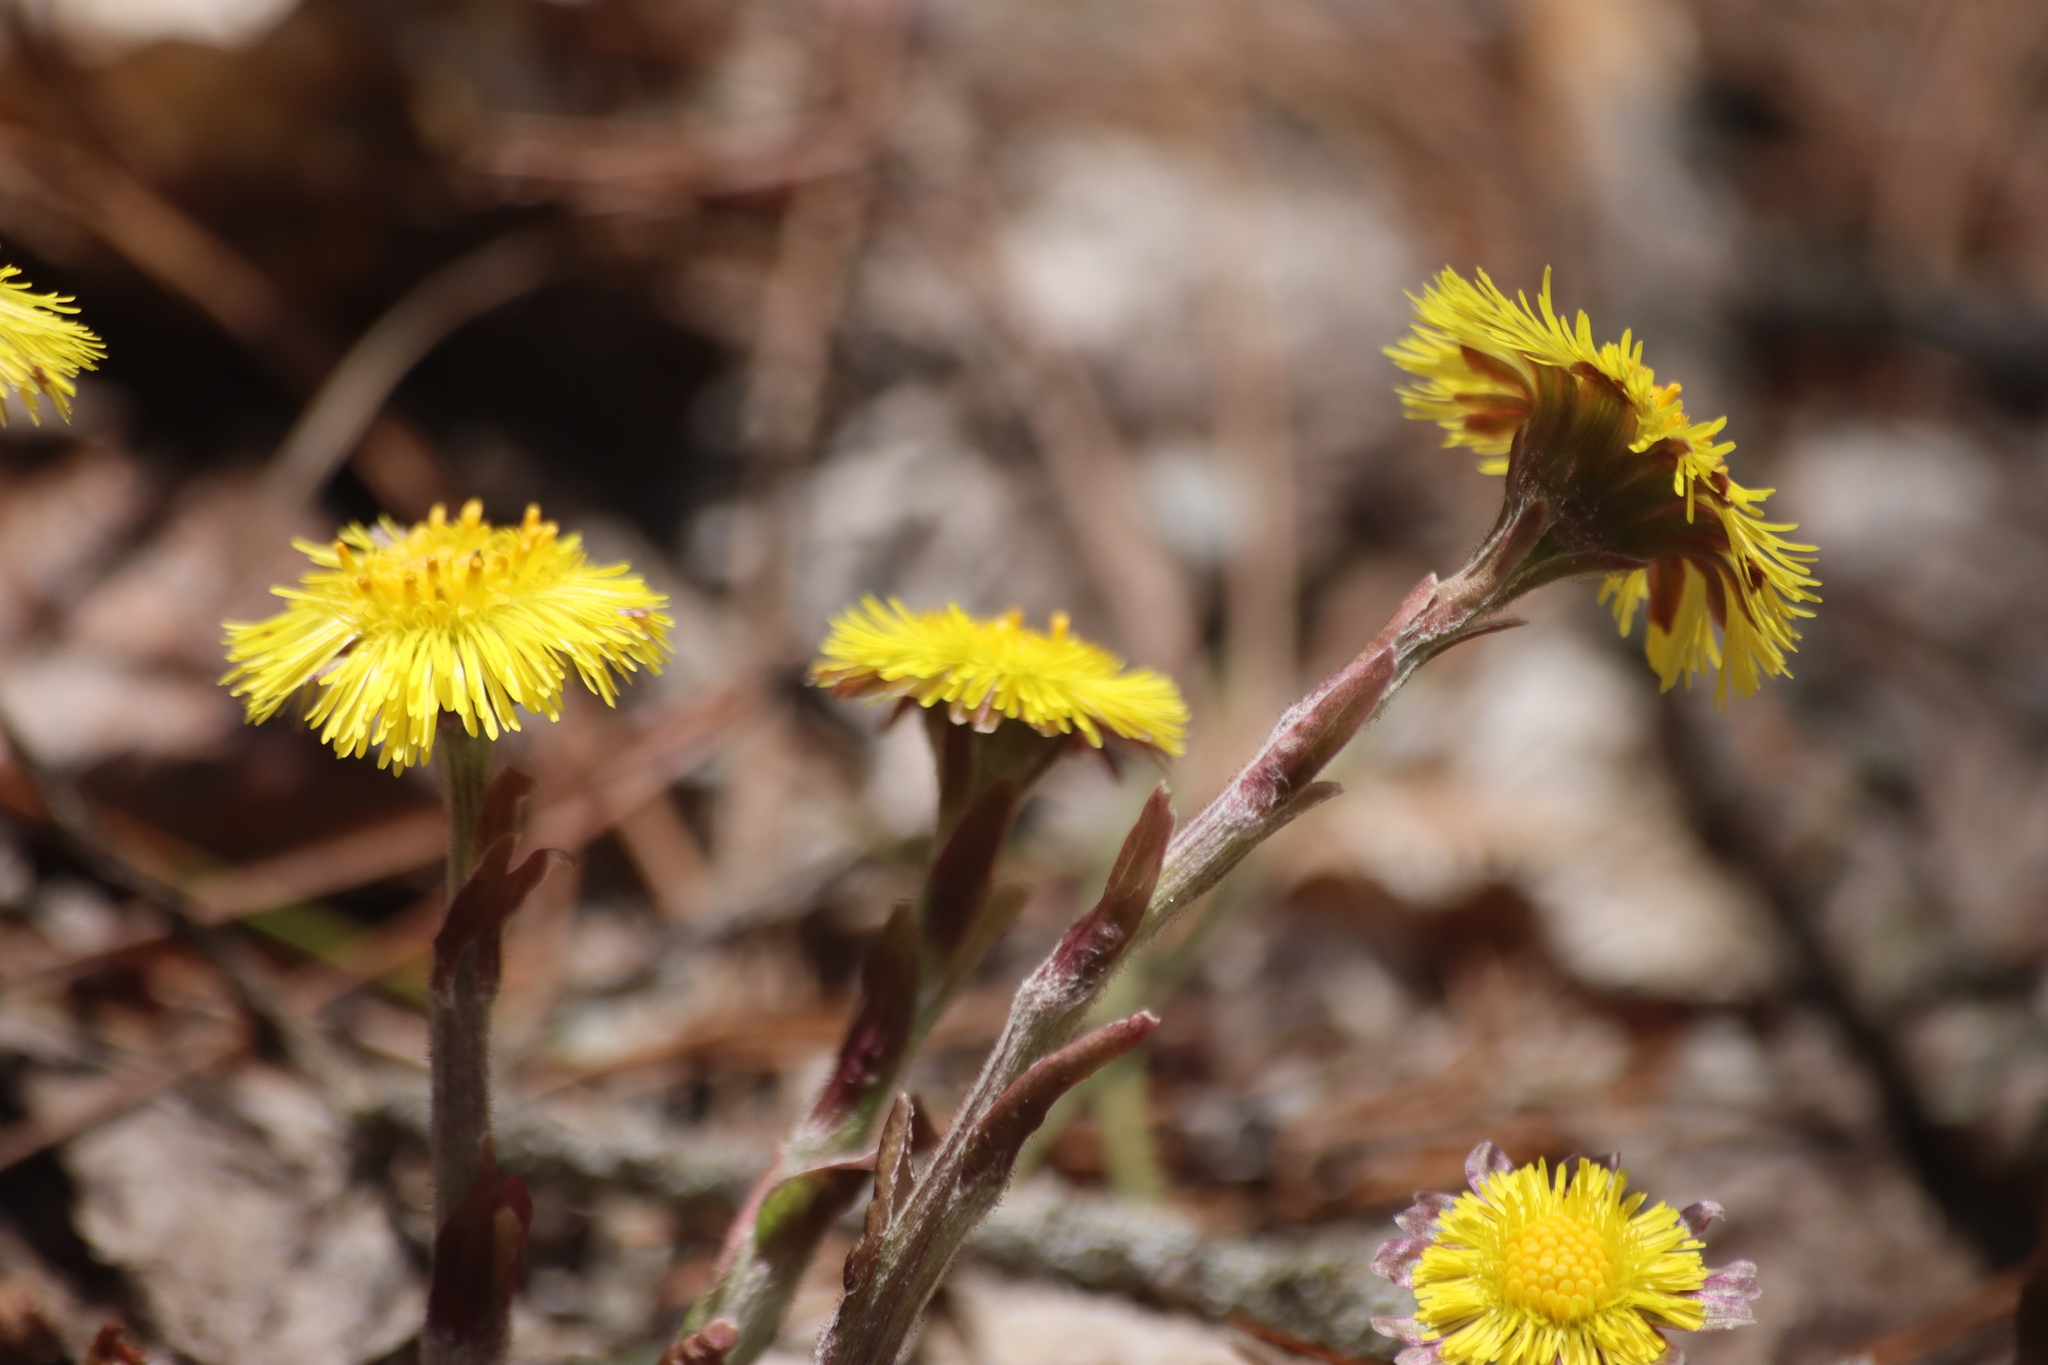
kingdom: Plantae
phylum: Tracheophyta
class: Magnoliopsida
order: Asterales
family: Asteraceae
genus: Tussilago
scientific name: Tussilago farfara
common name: Coltsfoot
